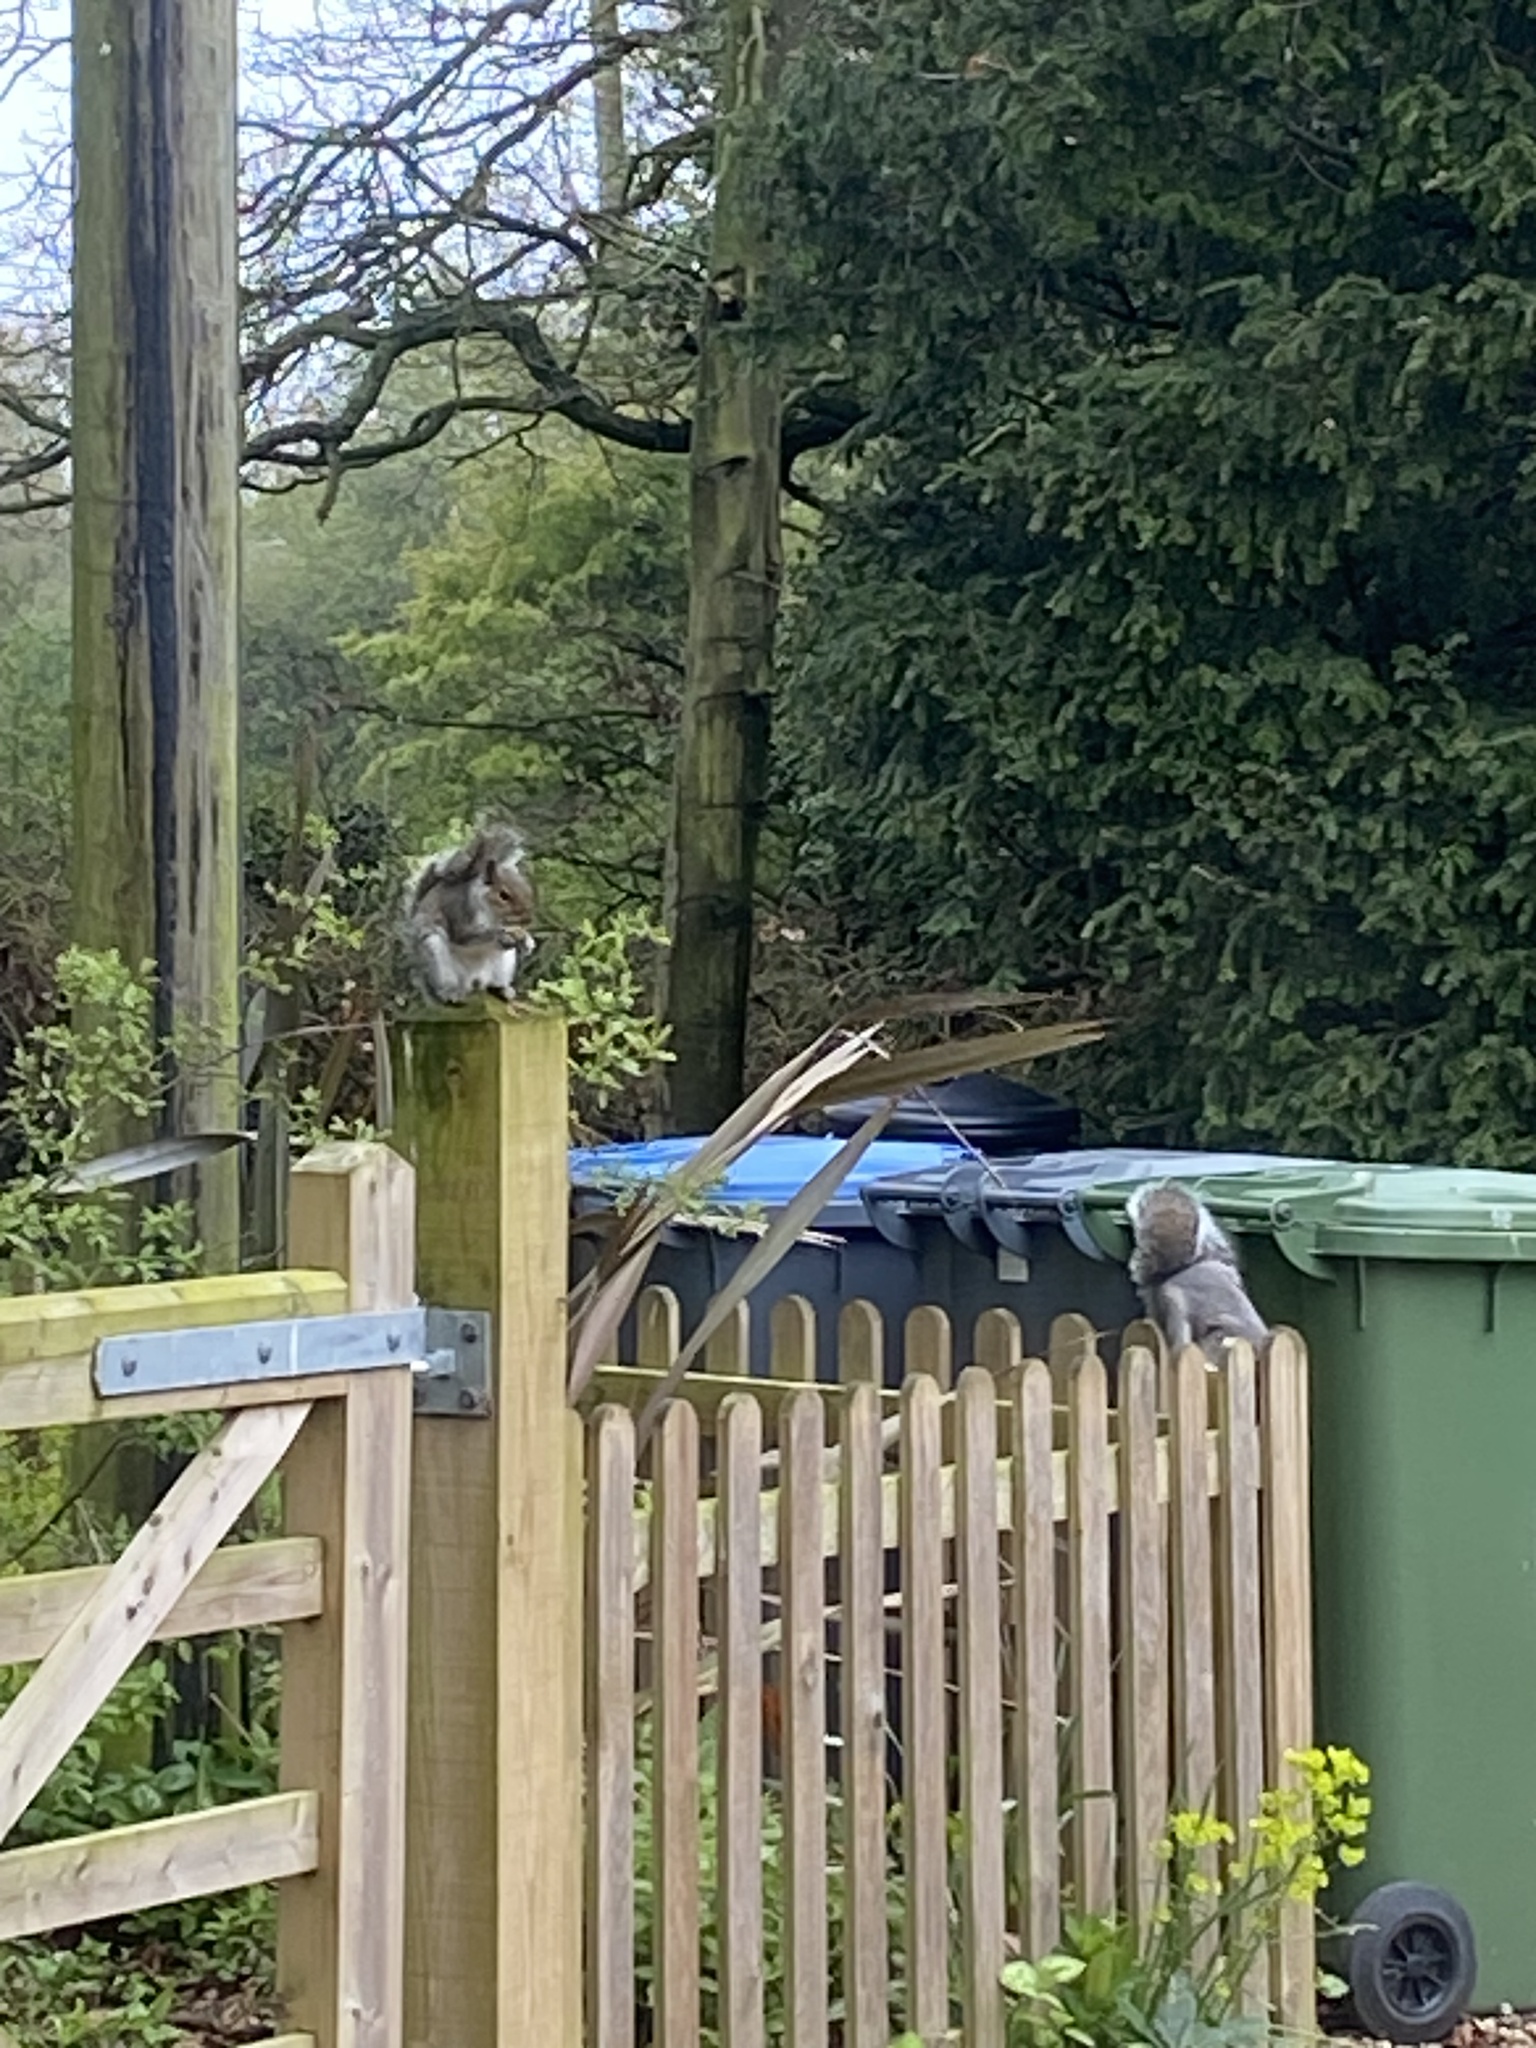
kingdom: Animalia
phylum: Chordata
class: Mammalia
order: Rodentia
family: Sciuridae
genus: Sciurus
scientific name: Sciurus carolinensis
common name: Eastern gray squirrel
